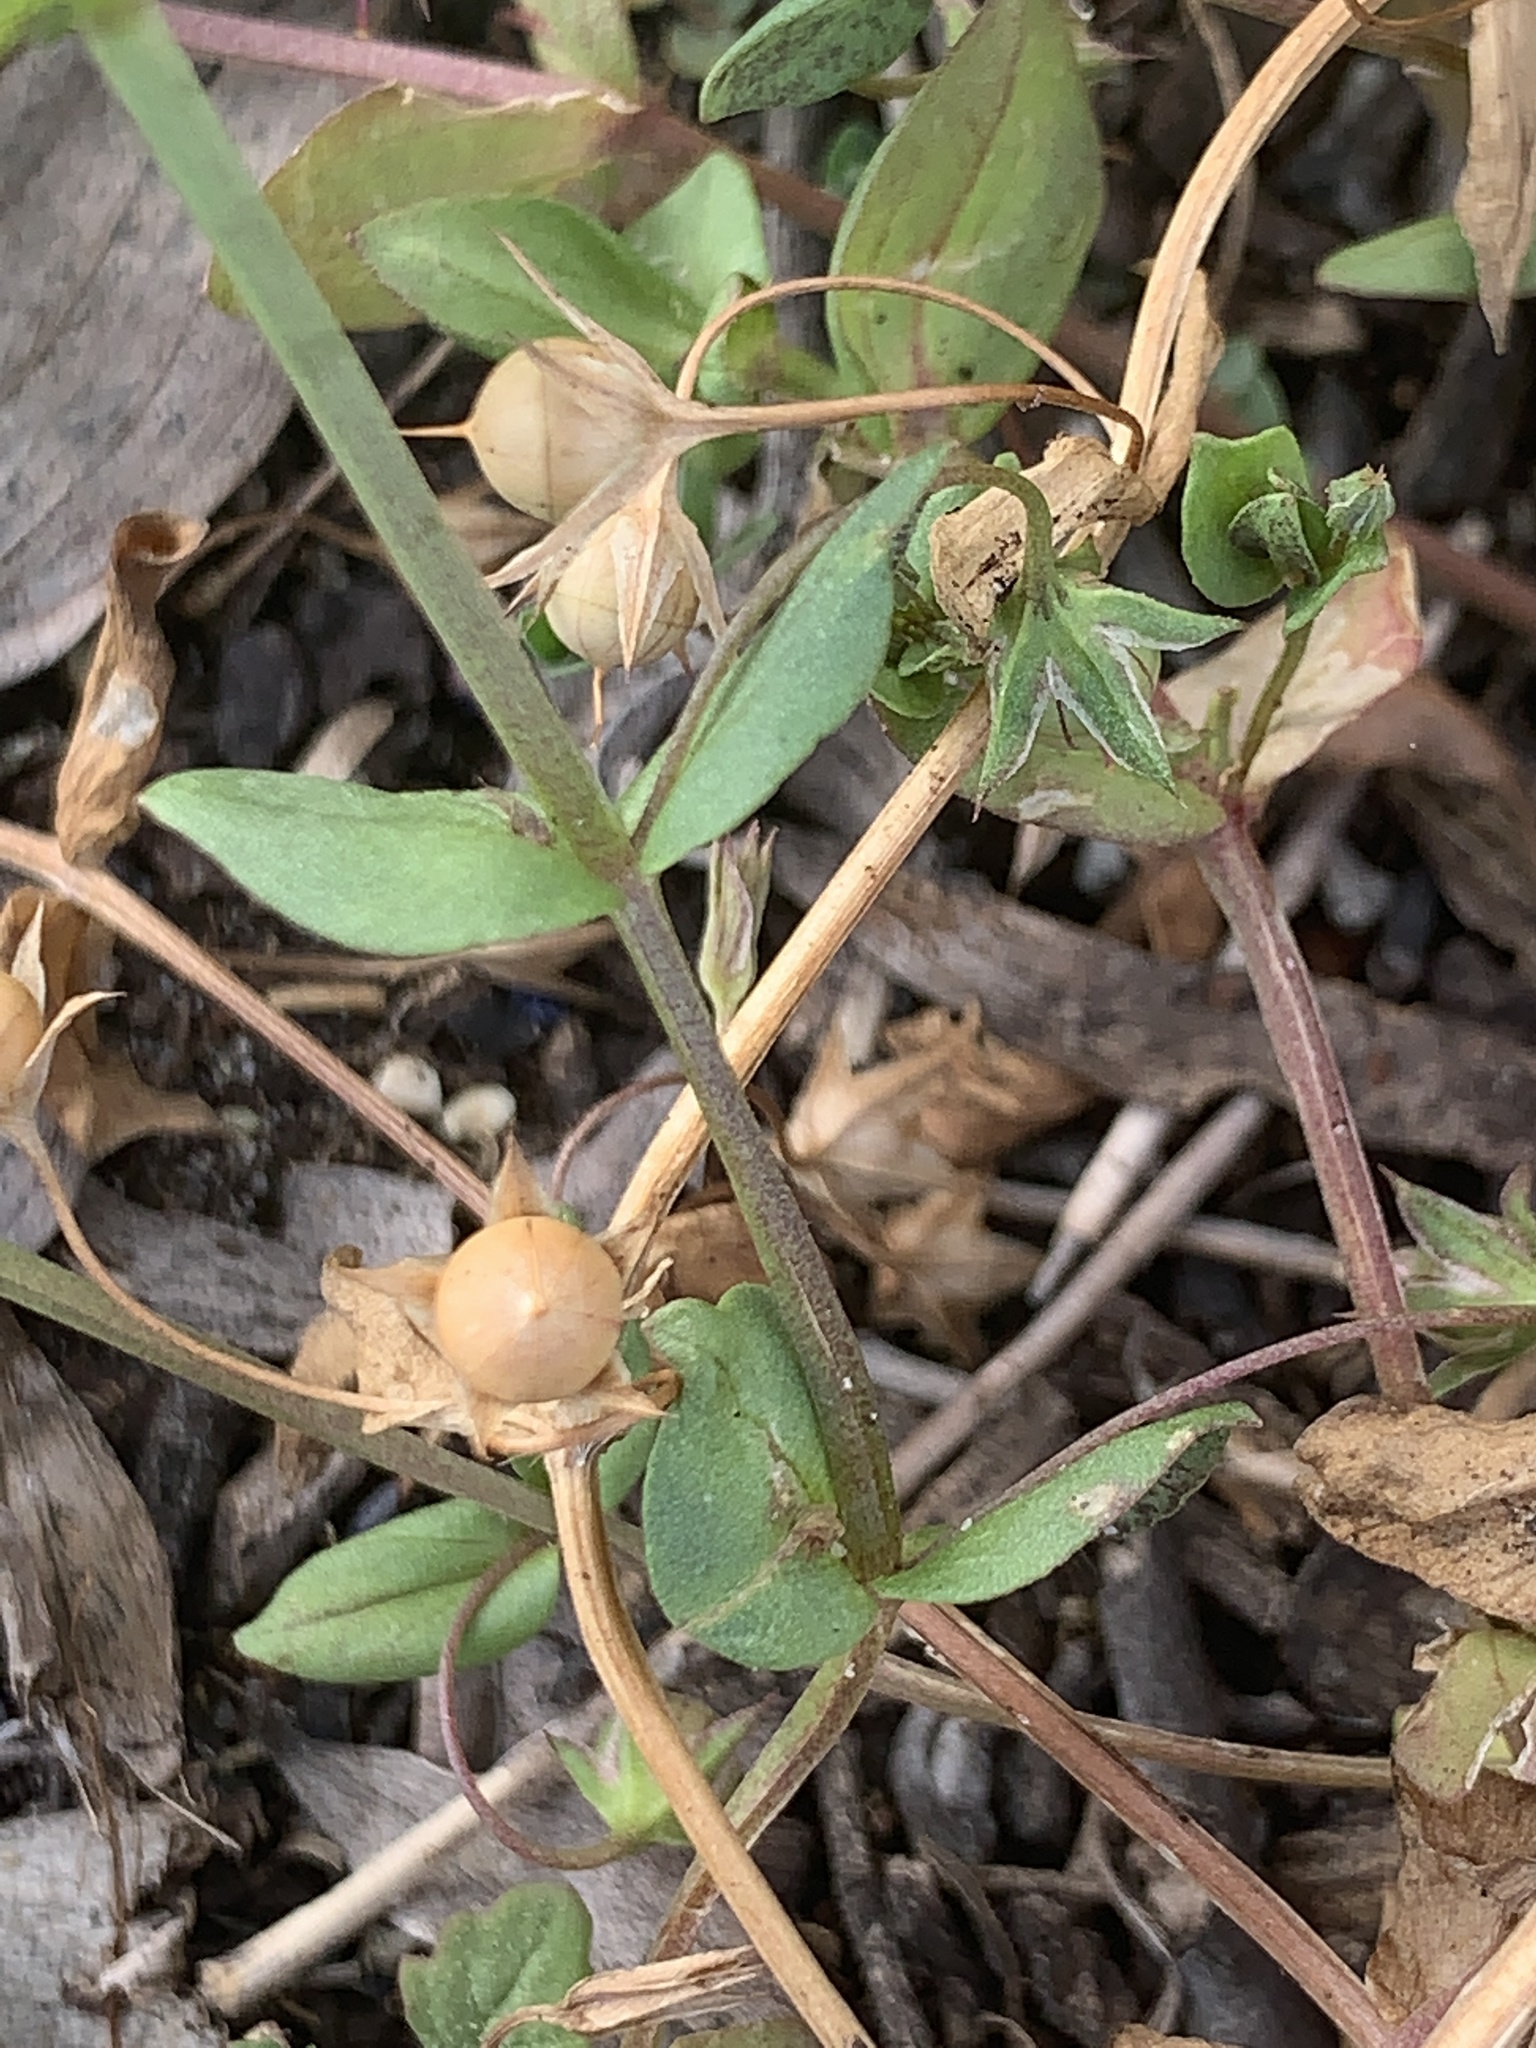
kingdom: Plantae
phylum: Tracheophyta
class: Magnoliopsida
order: Ericales
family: Primulaceae
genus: Lysimachia
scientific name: Lysimachia loeflingii
